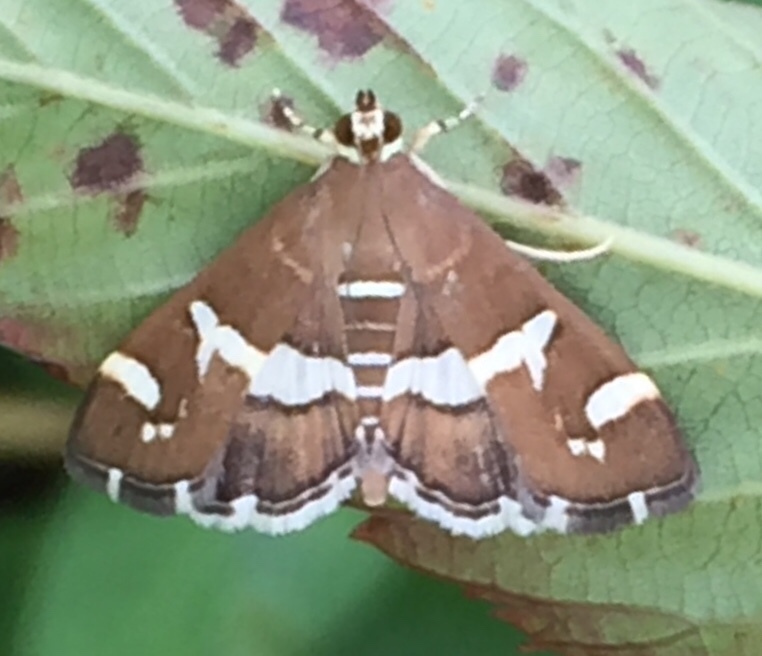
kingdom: Animalia
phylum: Arthropoda
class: Insecta
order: Lepidoptera
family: Crambidae
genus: Spoladea
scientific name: Spoladea recurvalis
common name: Beet webworm moth
